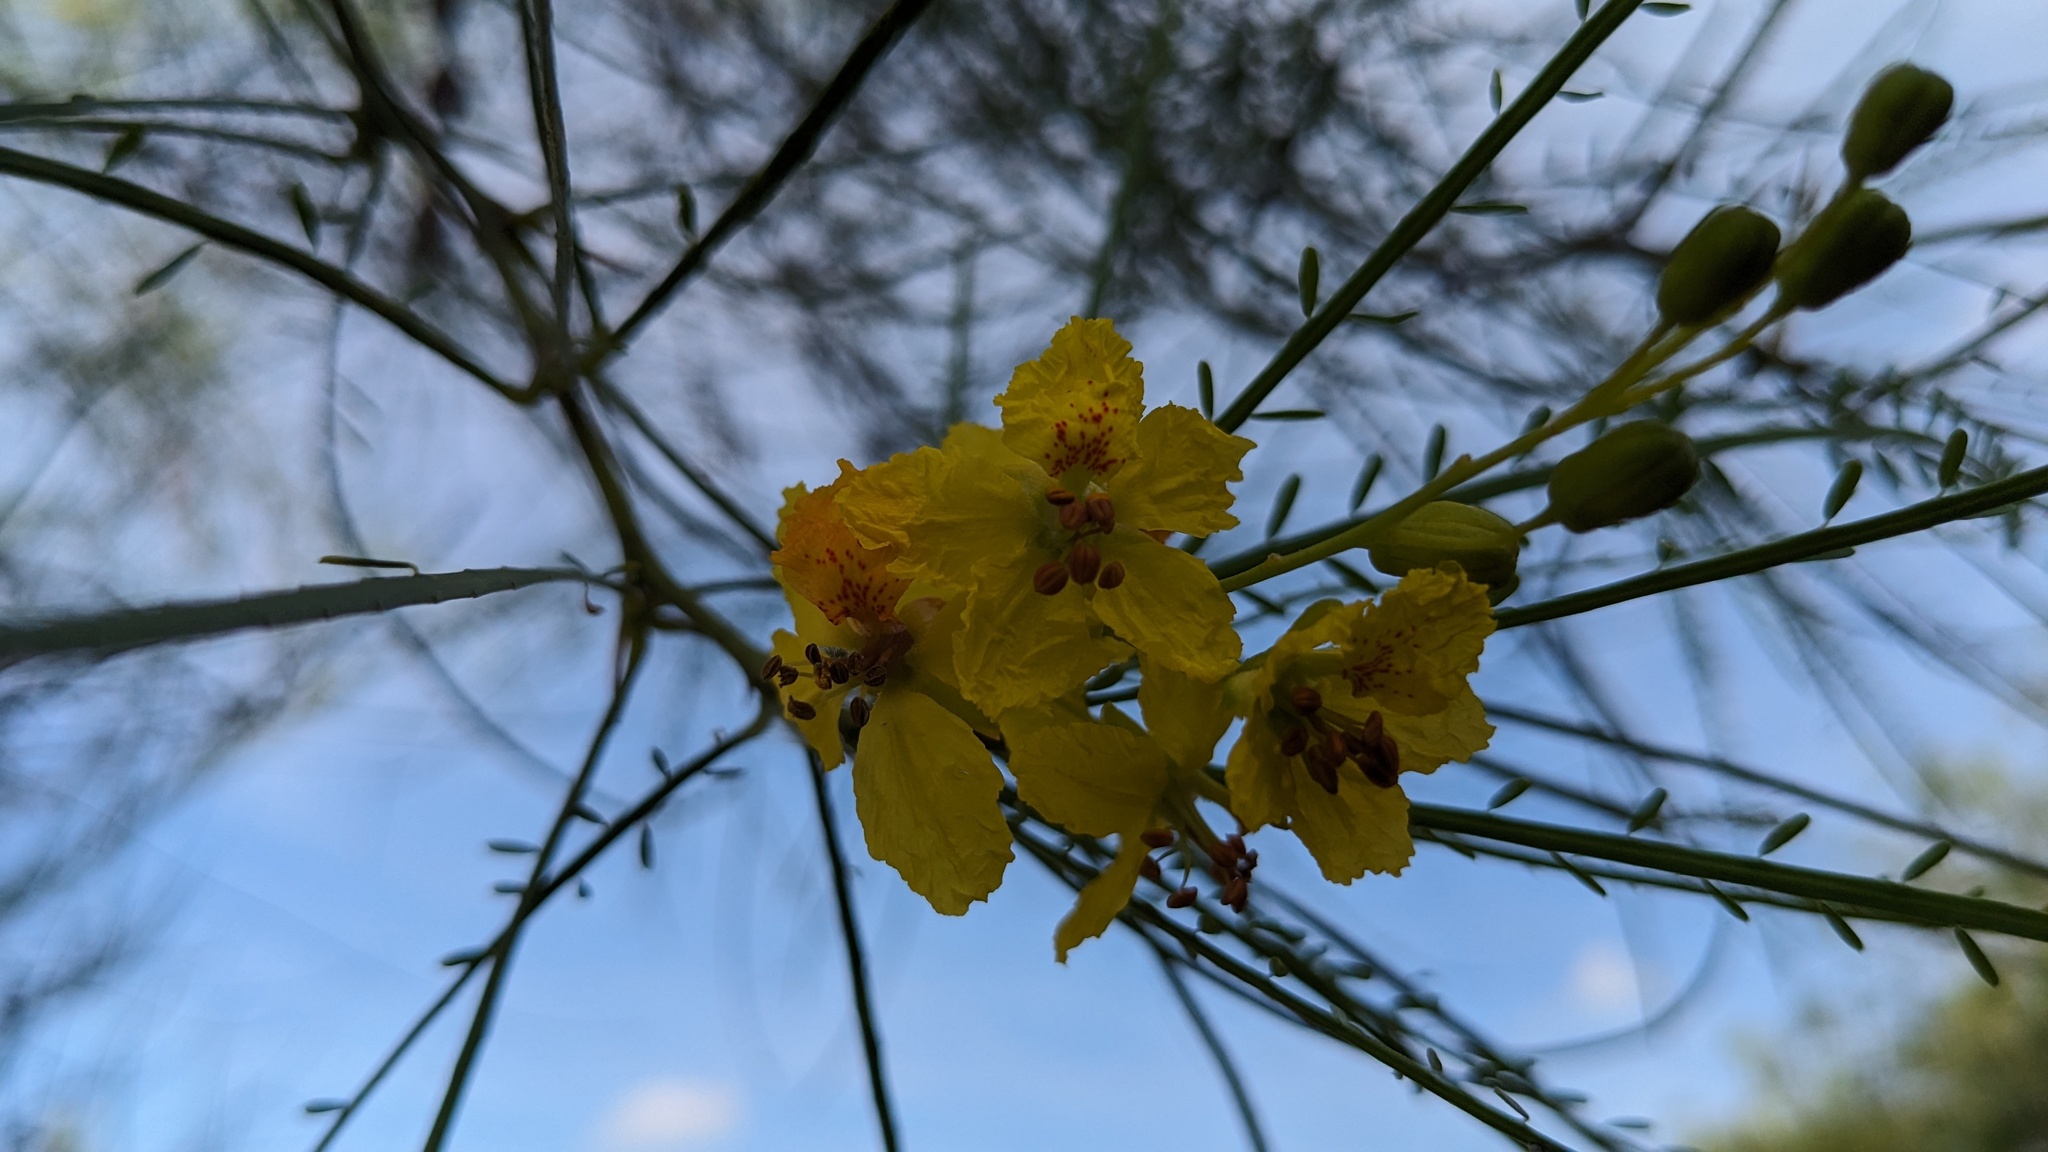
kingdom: Plantae
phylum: Tracheophyta
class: Magnoliopsida
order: Fabales
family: Fabaceae
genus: Parkinsonia
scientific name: Parkinsonia aculeata
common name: Jerusalem thorn
